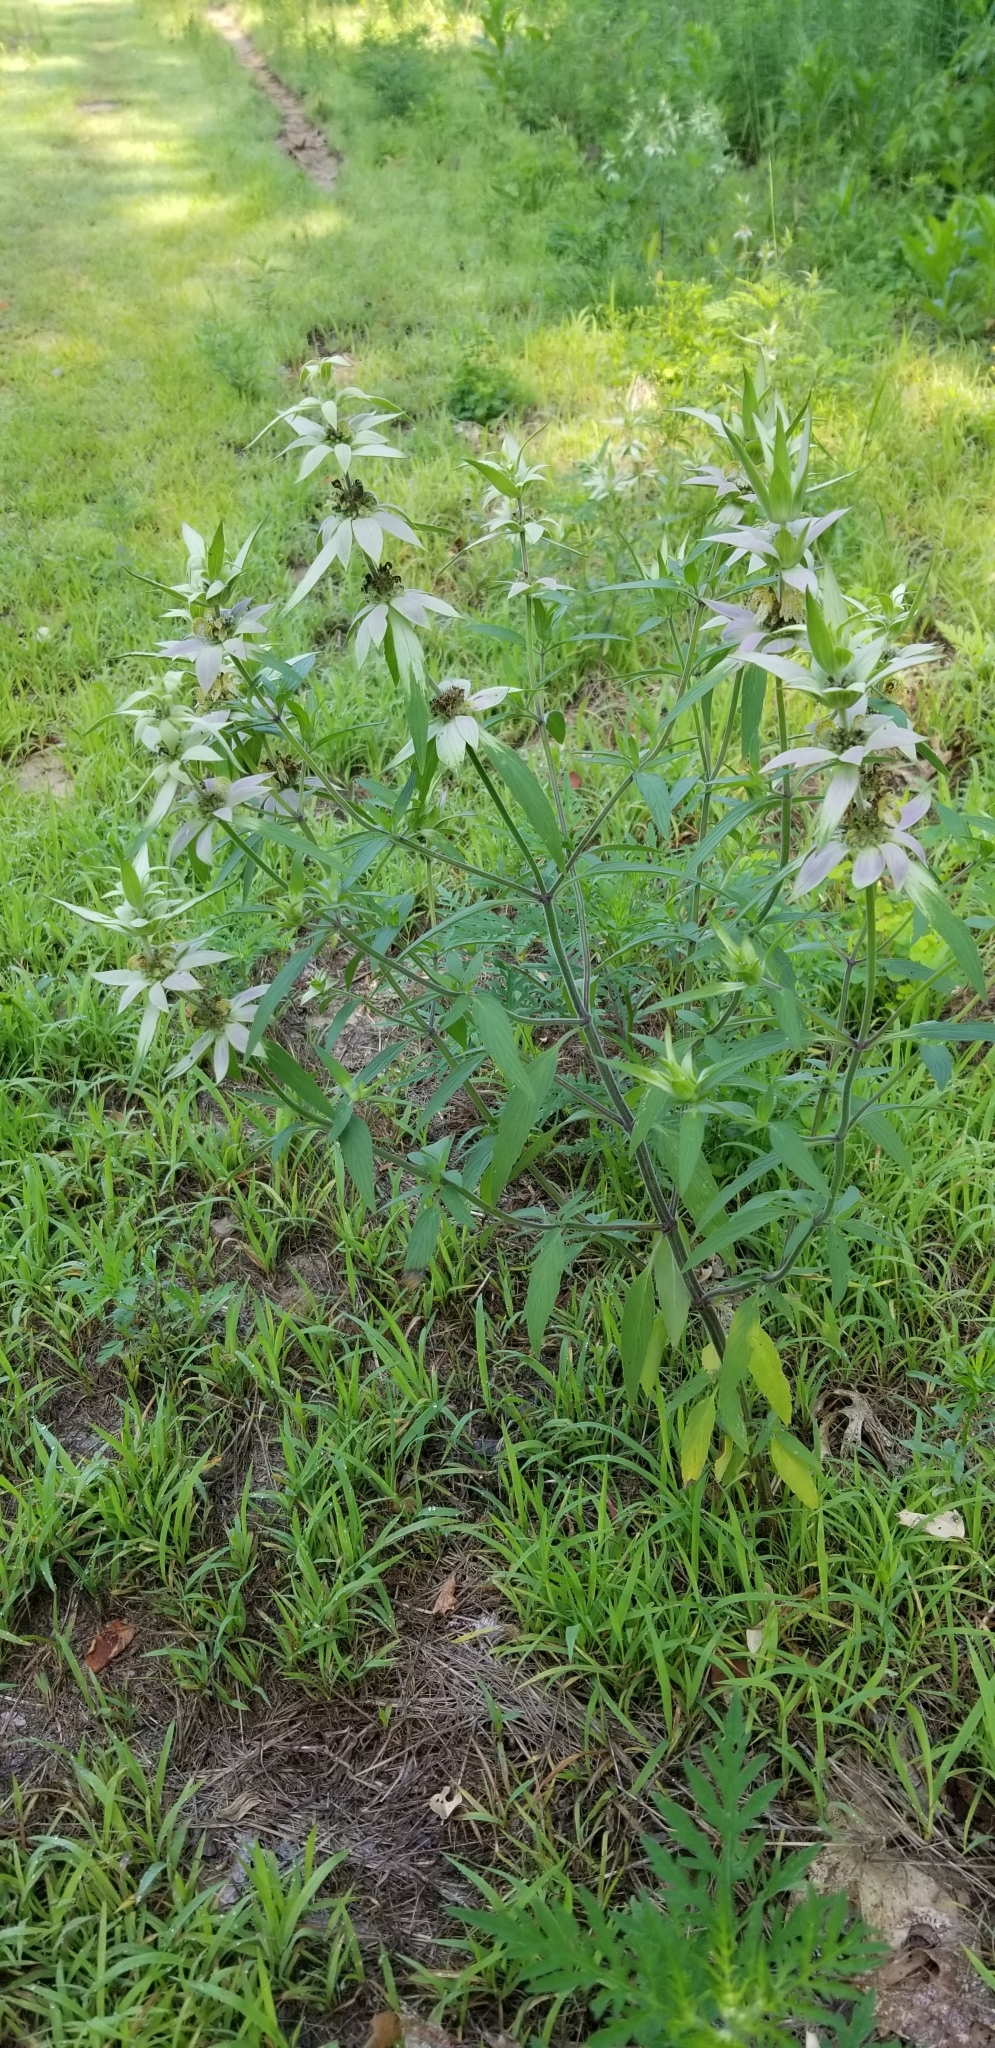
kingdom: Plantae
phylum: Tracheophyta
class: Magnoliopsida
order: Lamiales
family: Lamiaceae
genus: Monarda
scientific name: Monarda punctata
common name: Dotted monarda
